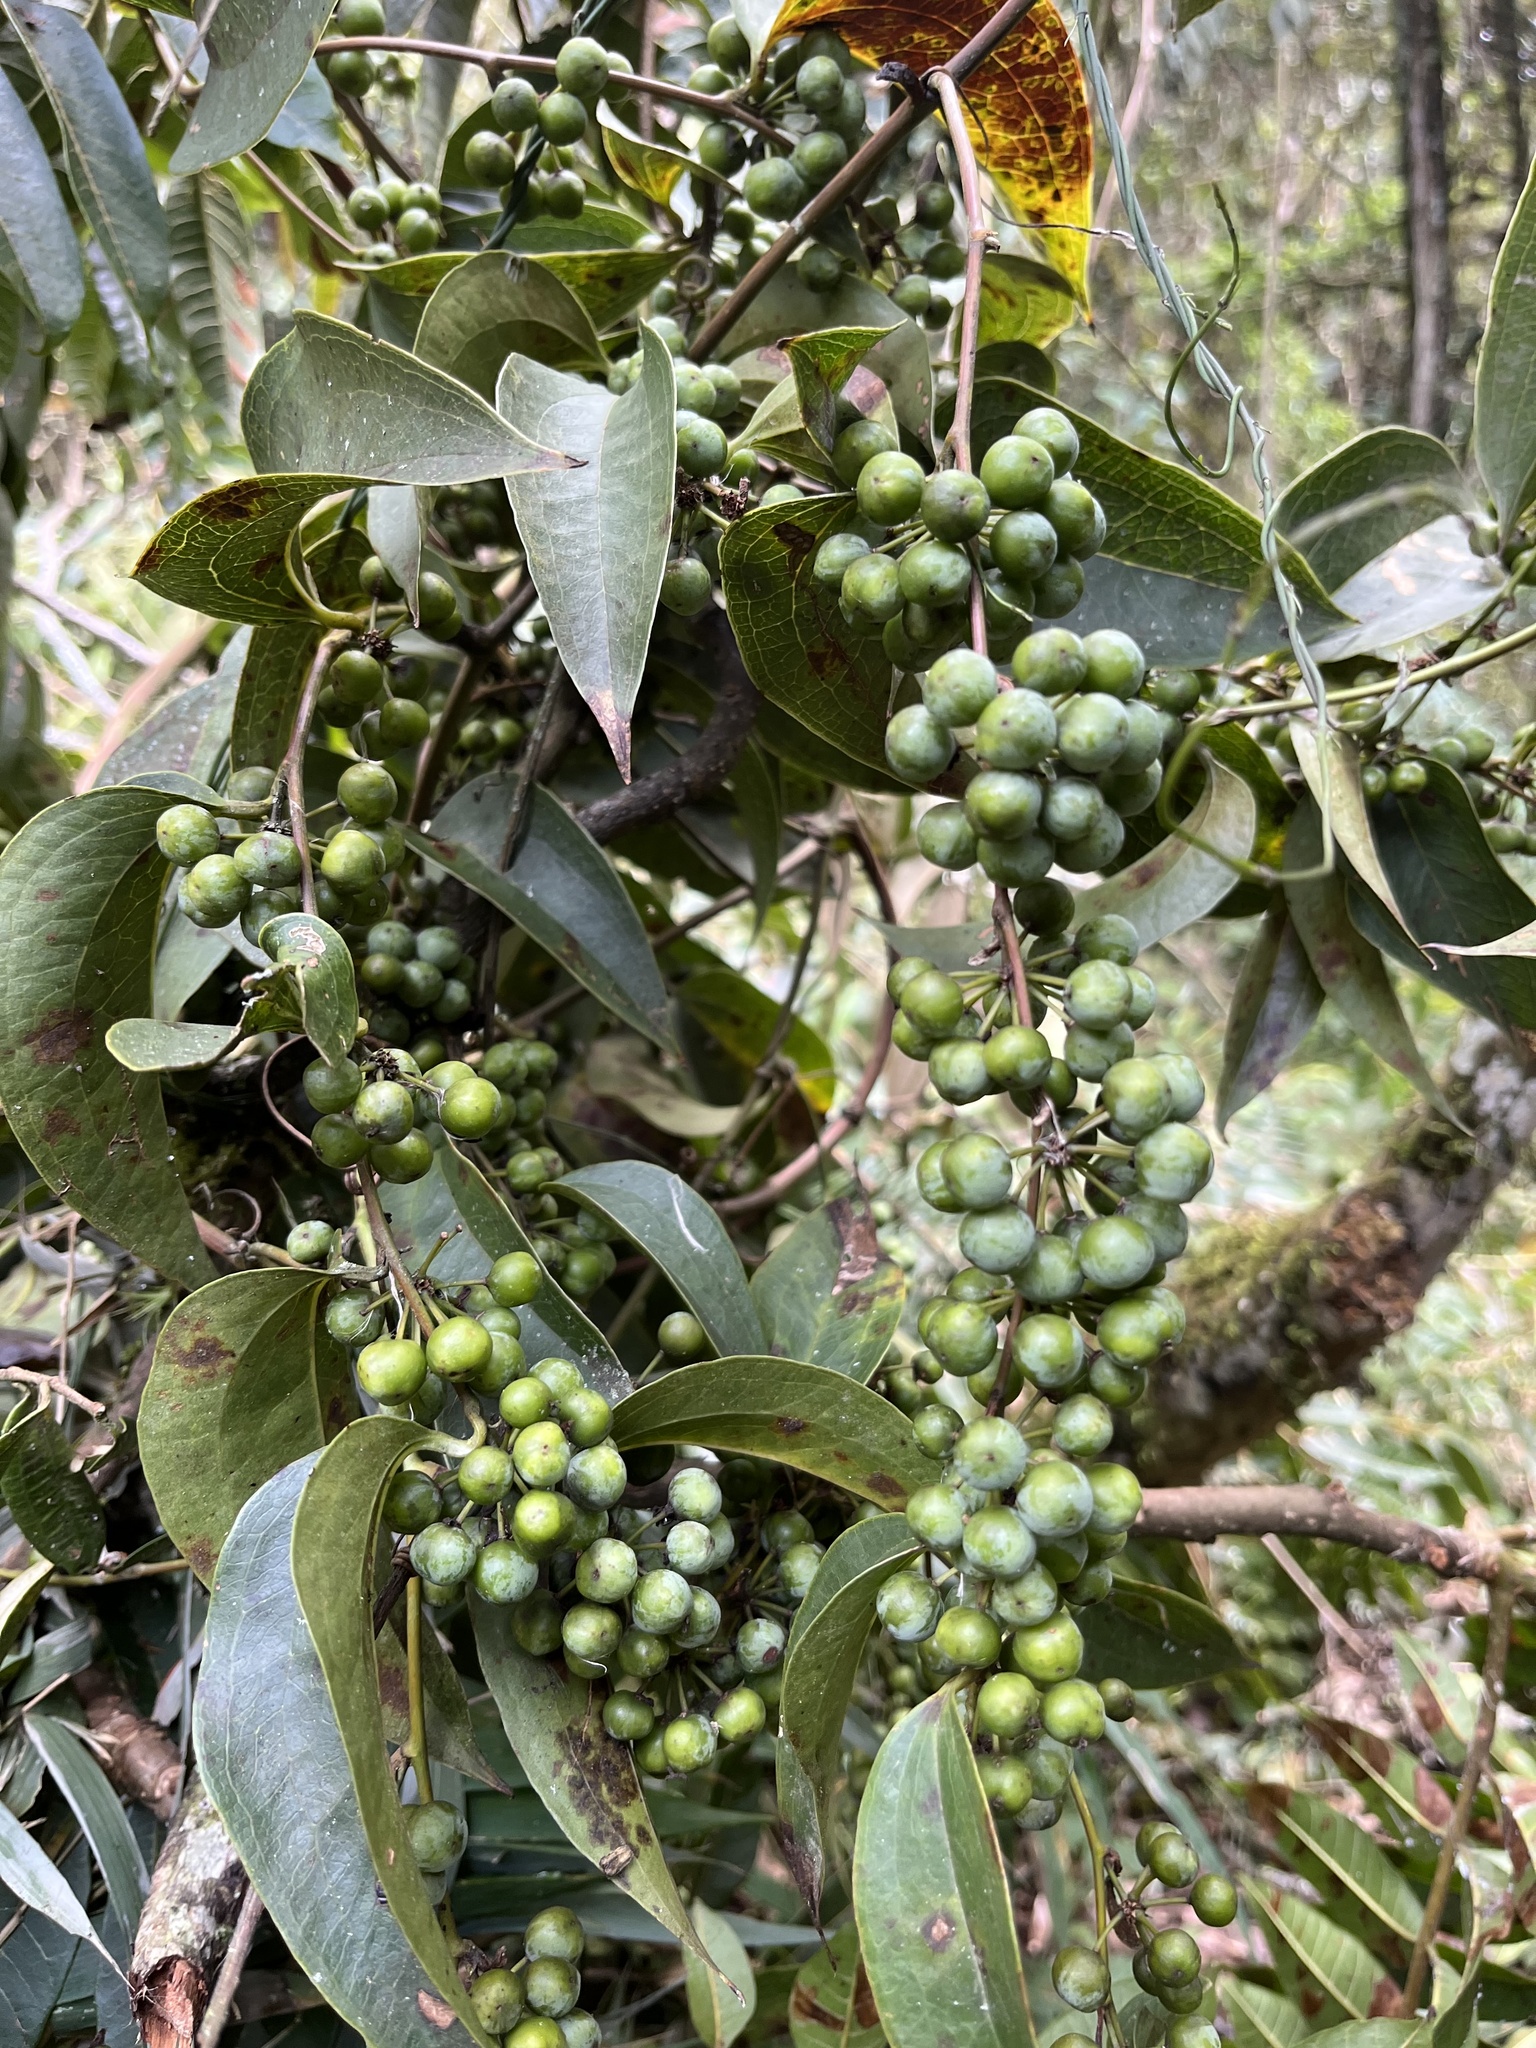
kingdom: Plantae
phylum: Tracheophyta
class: Liliopsida
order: Liliales
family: Smilacaceae
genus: Smilax
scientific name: Smilax domingensis
